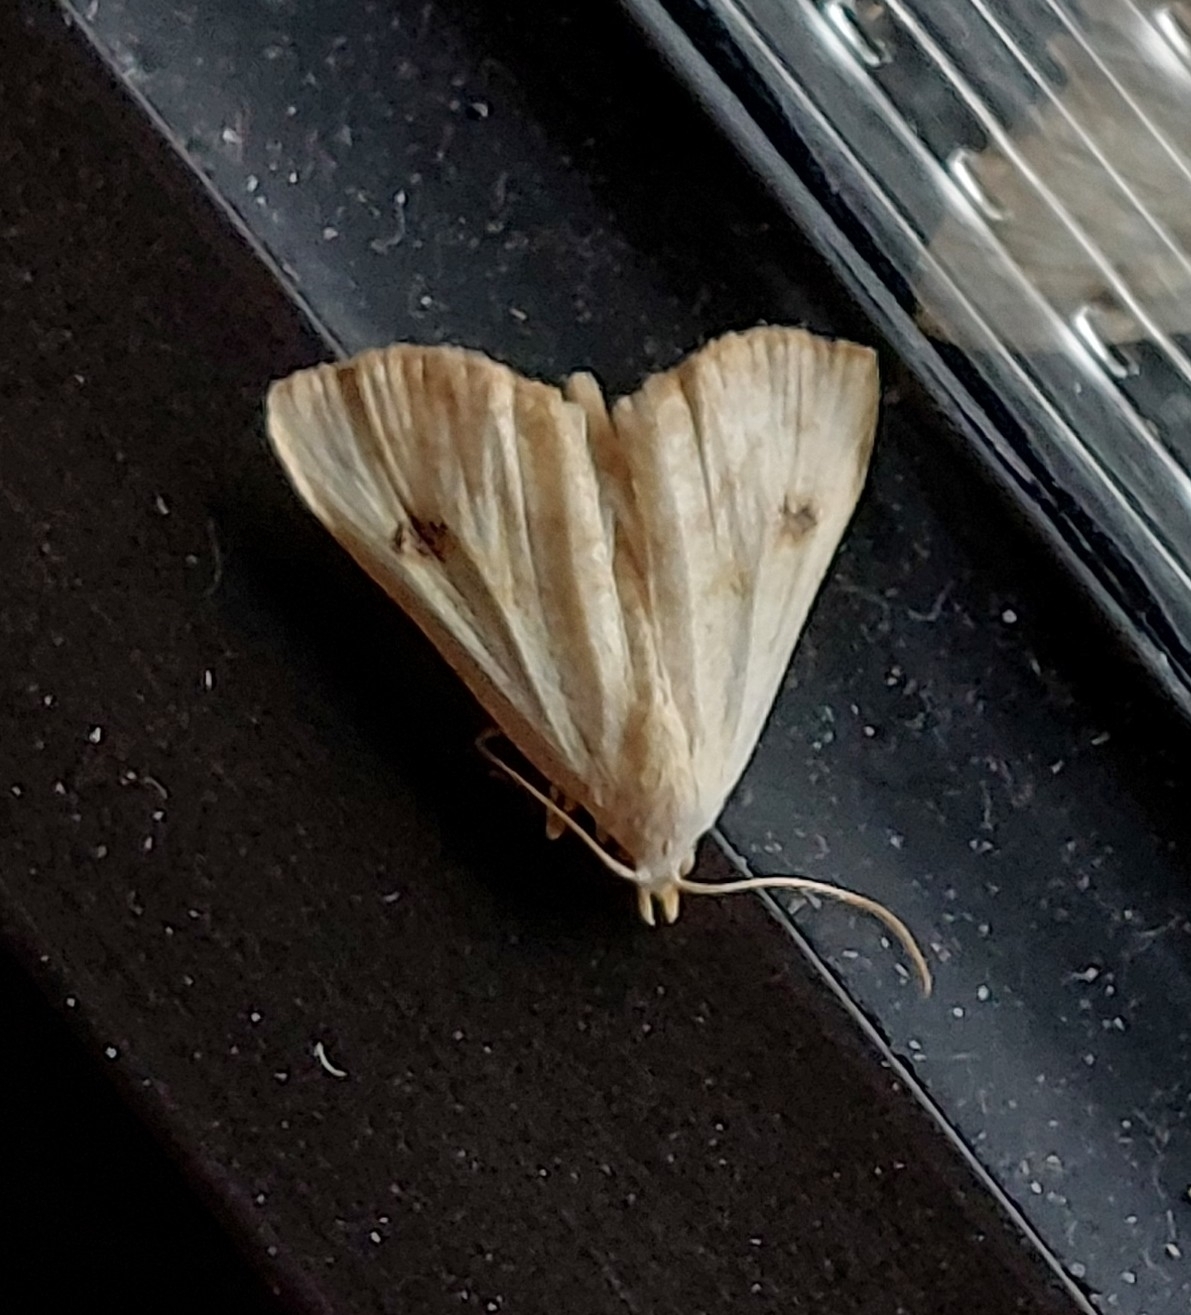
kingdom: Animalia
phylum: Arthropoda
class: Insecta
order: Lepidoptera
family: Erebidae
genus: Rivula
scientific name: Rivula sericealis
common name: Straw dot
